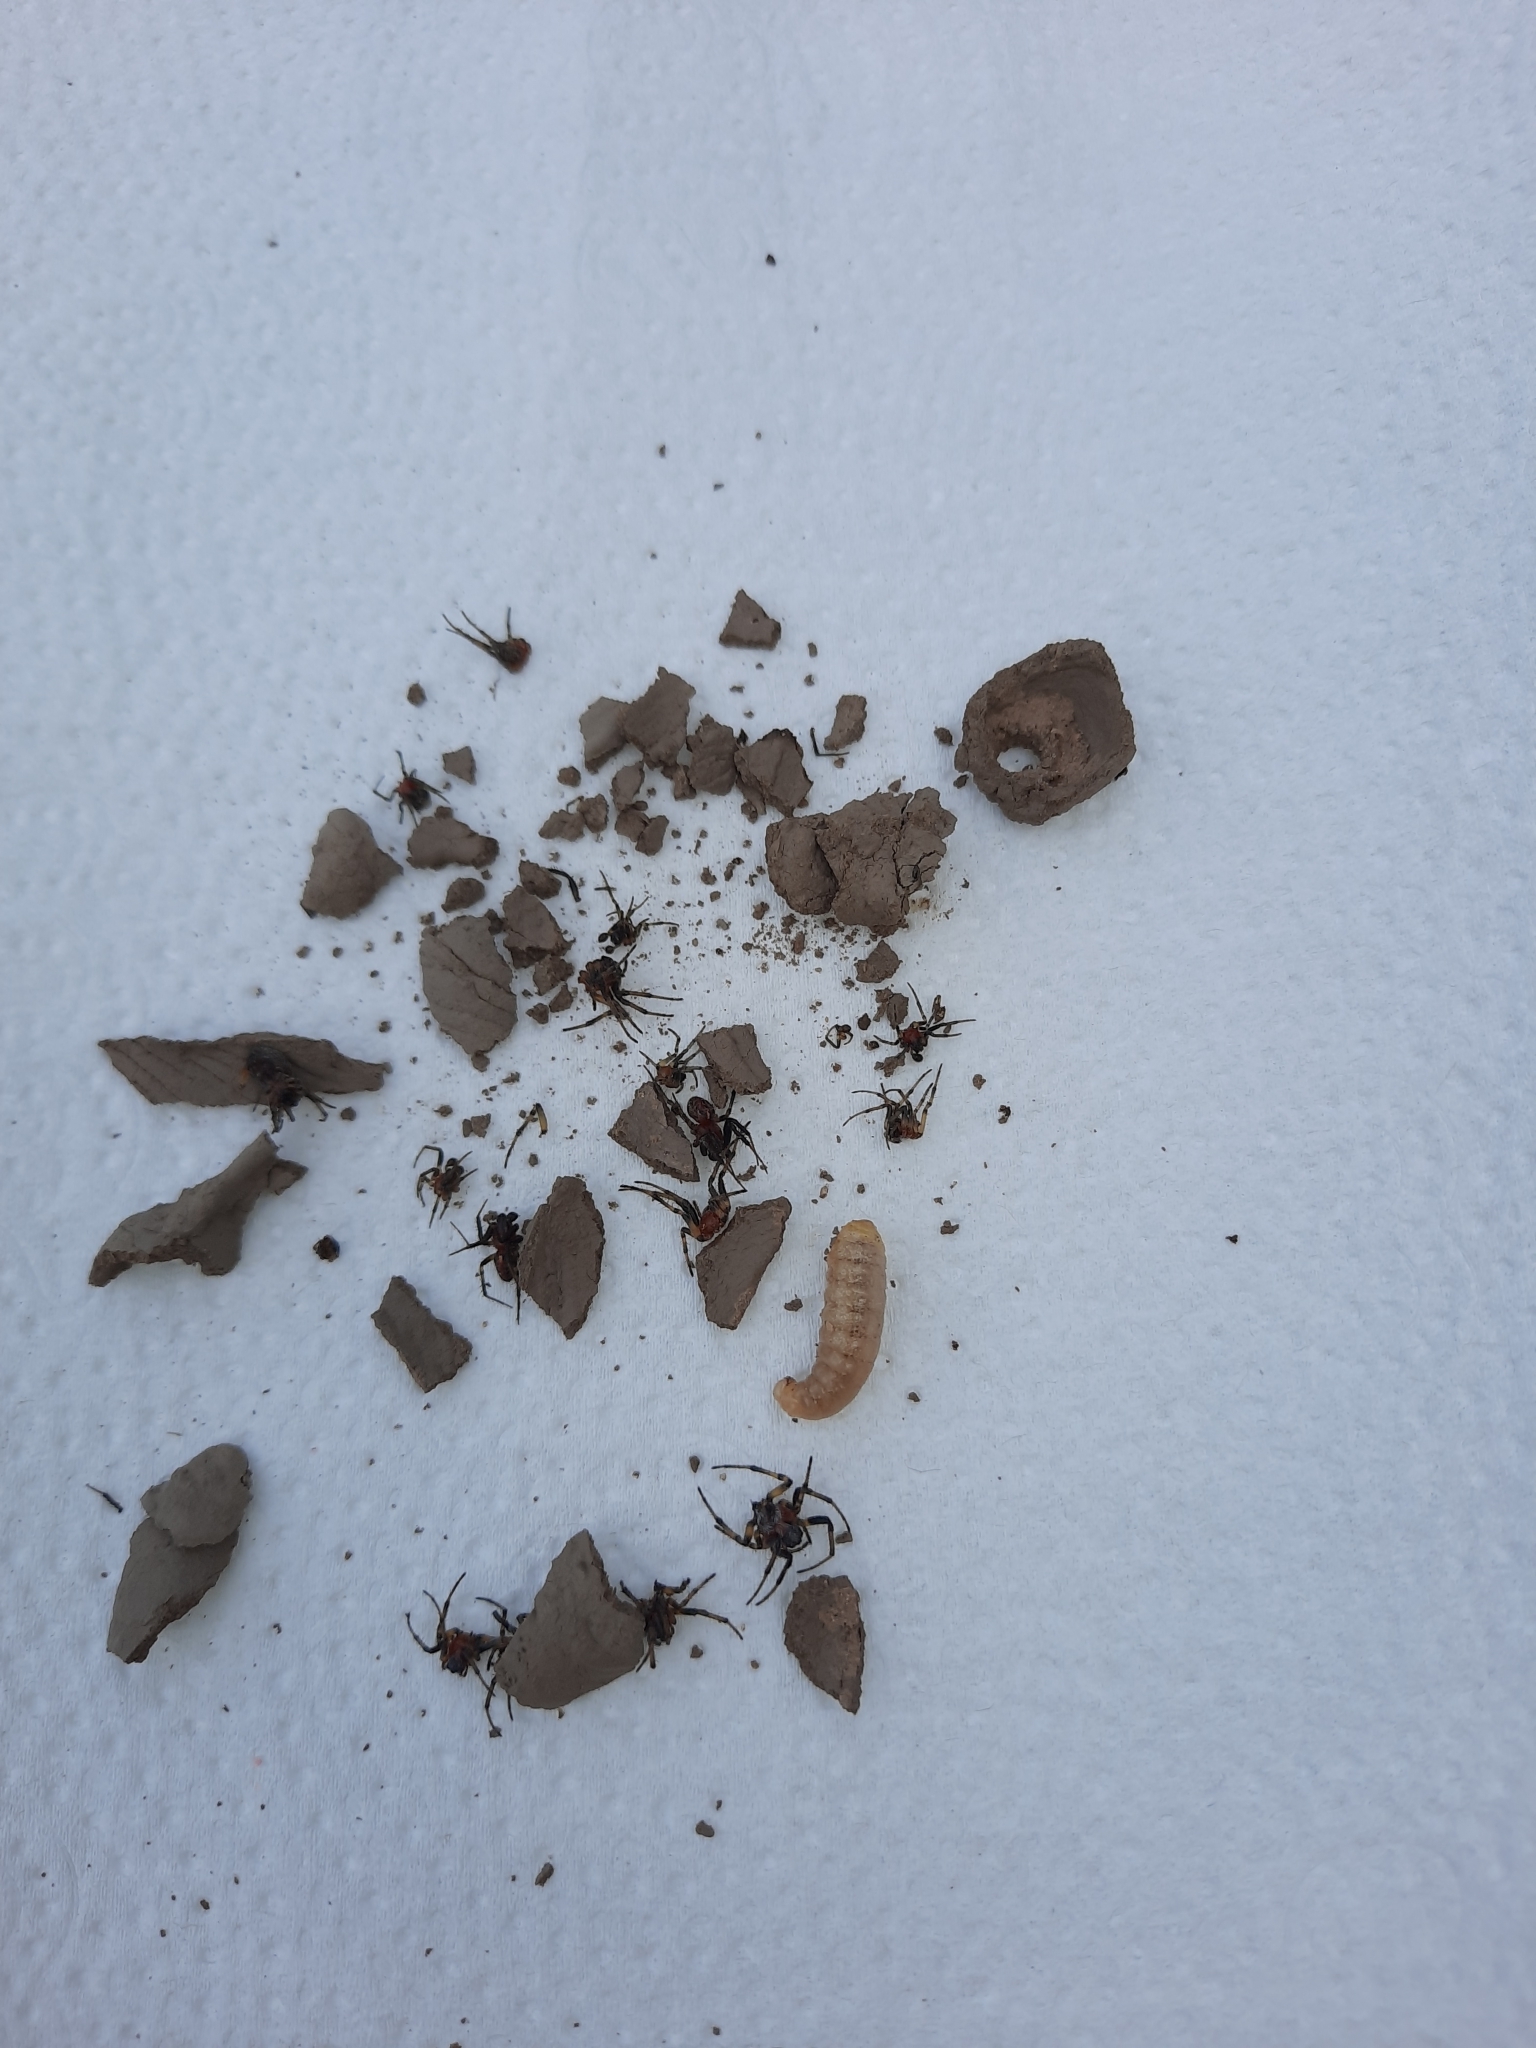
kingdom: Animalia
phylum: Arthropoda
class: Insecta
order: Hymenoptera
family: Sphecidae
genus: Sceliphron
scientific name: Sceliphron fistularium
